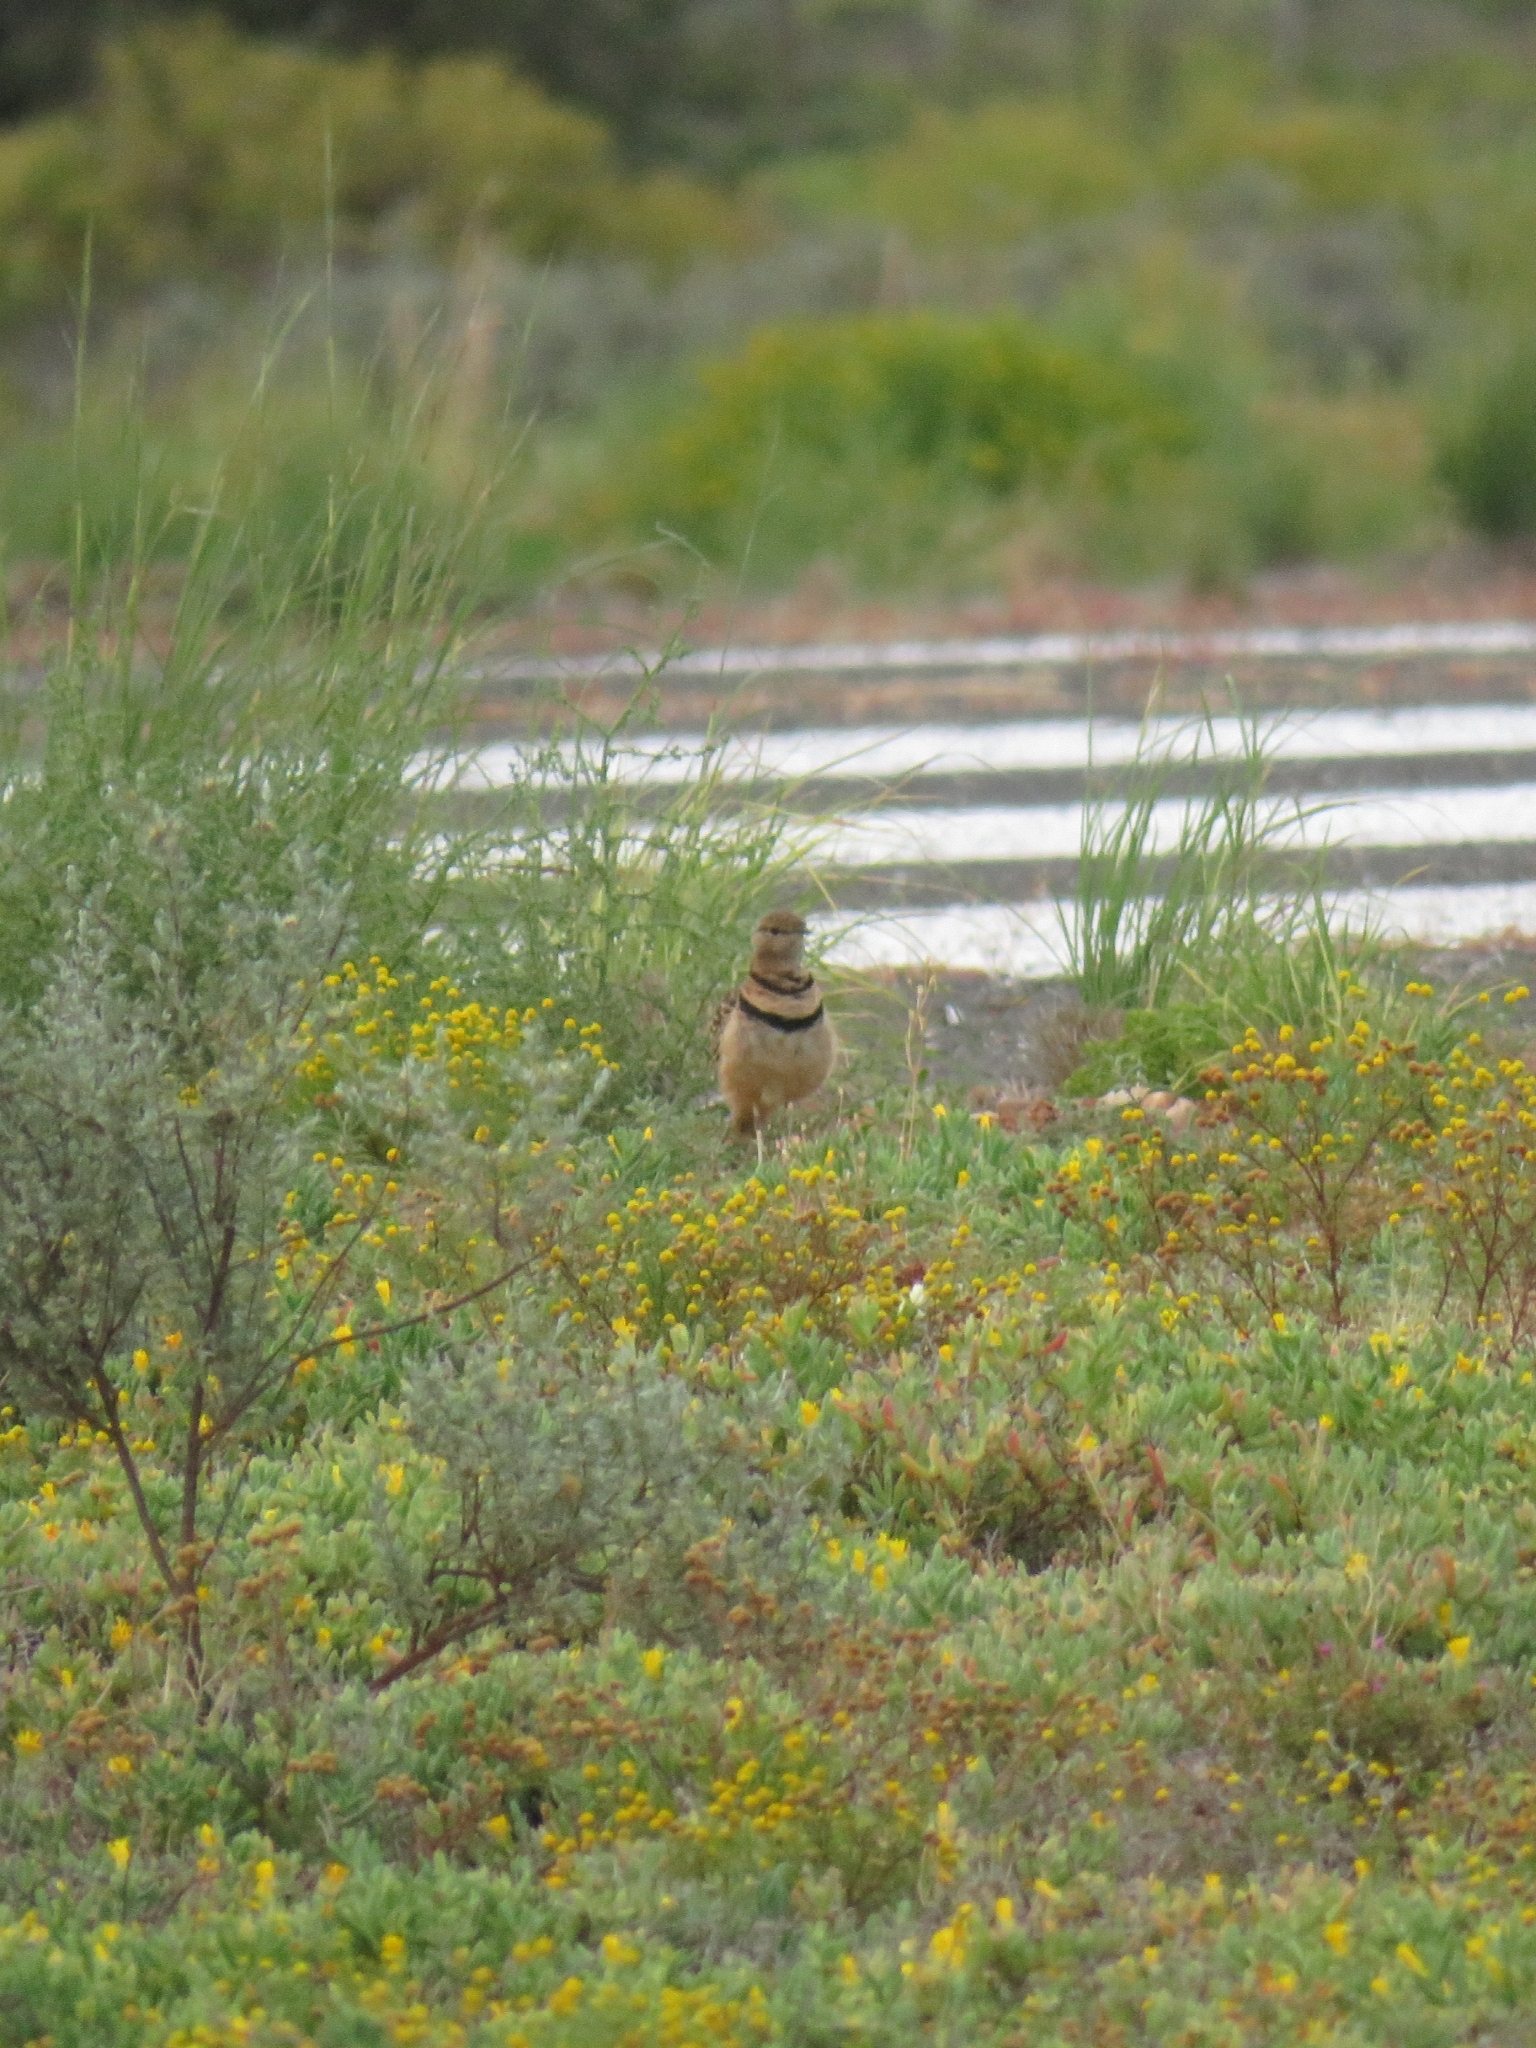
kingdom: Animalia
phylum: Chordata
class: Aves
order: Charadriiformes
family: Glareolidae
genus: Rhinoptilus
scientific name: Rhinoptilus africanus
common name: Double-banded courser
